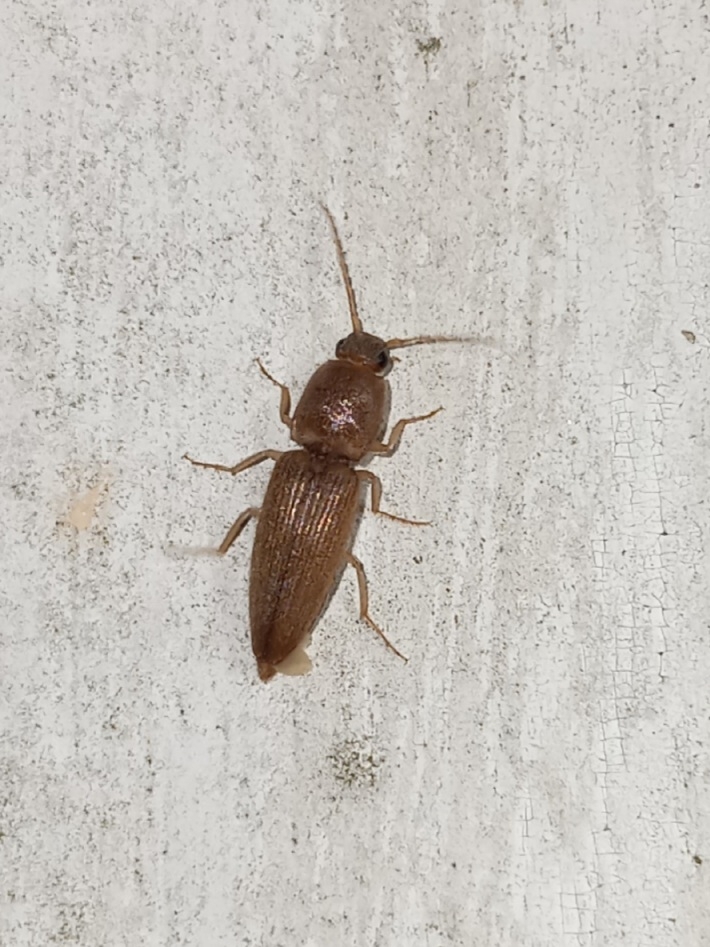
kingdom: Animalia
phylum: Arthropoda
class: Insecta
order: Coleoptera
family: Elateridae
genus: Monocrepidius
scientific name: Monocrepidius scissus
